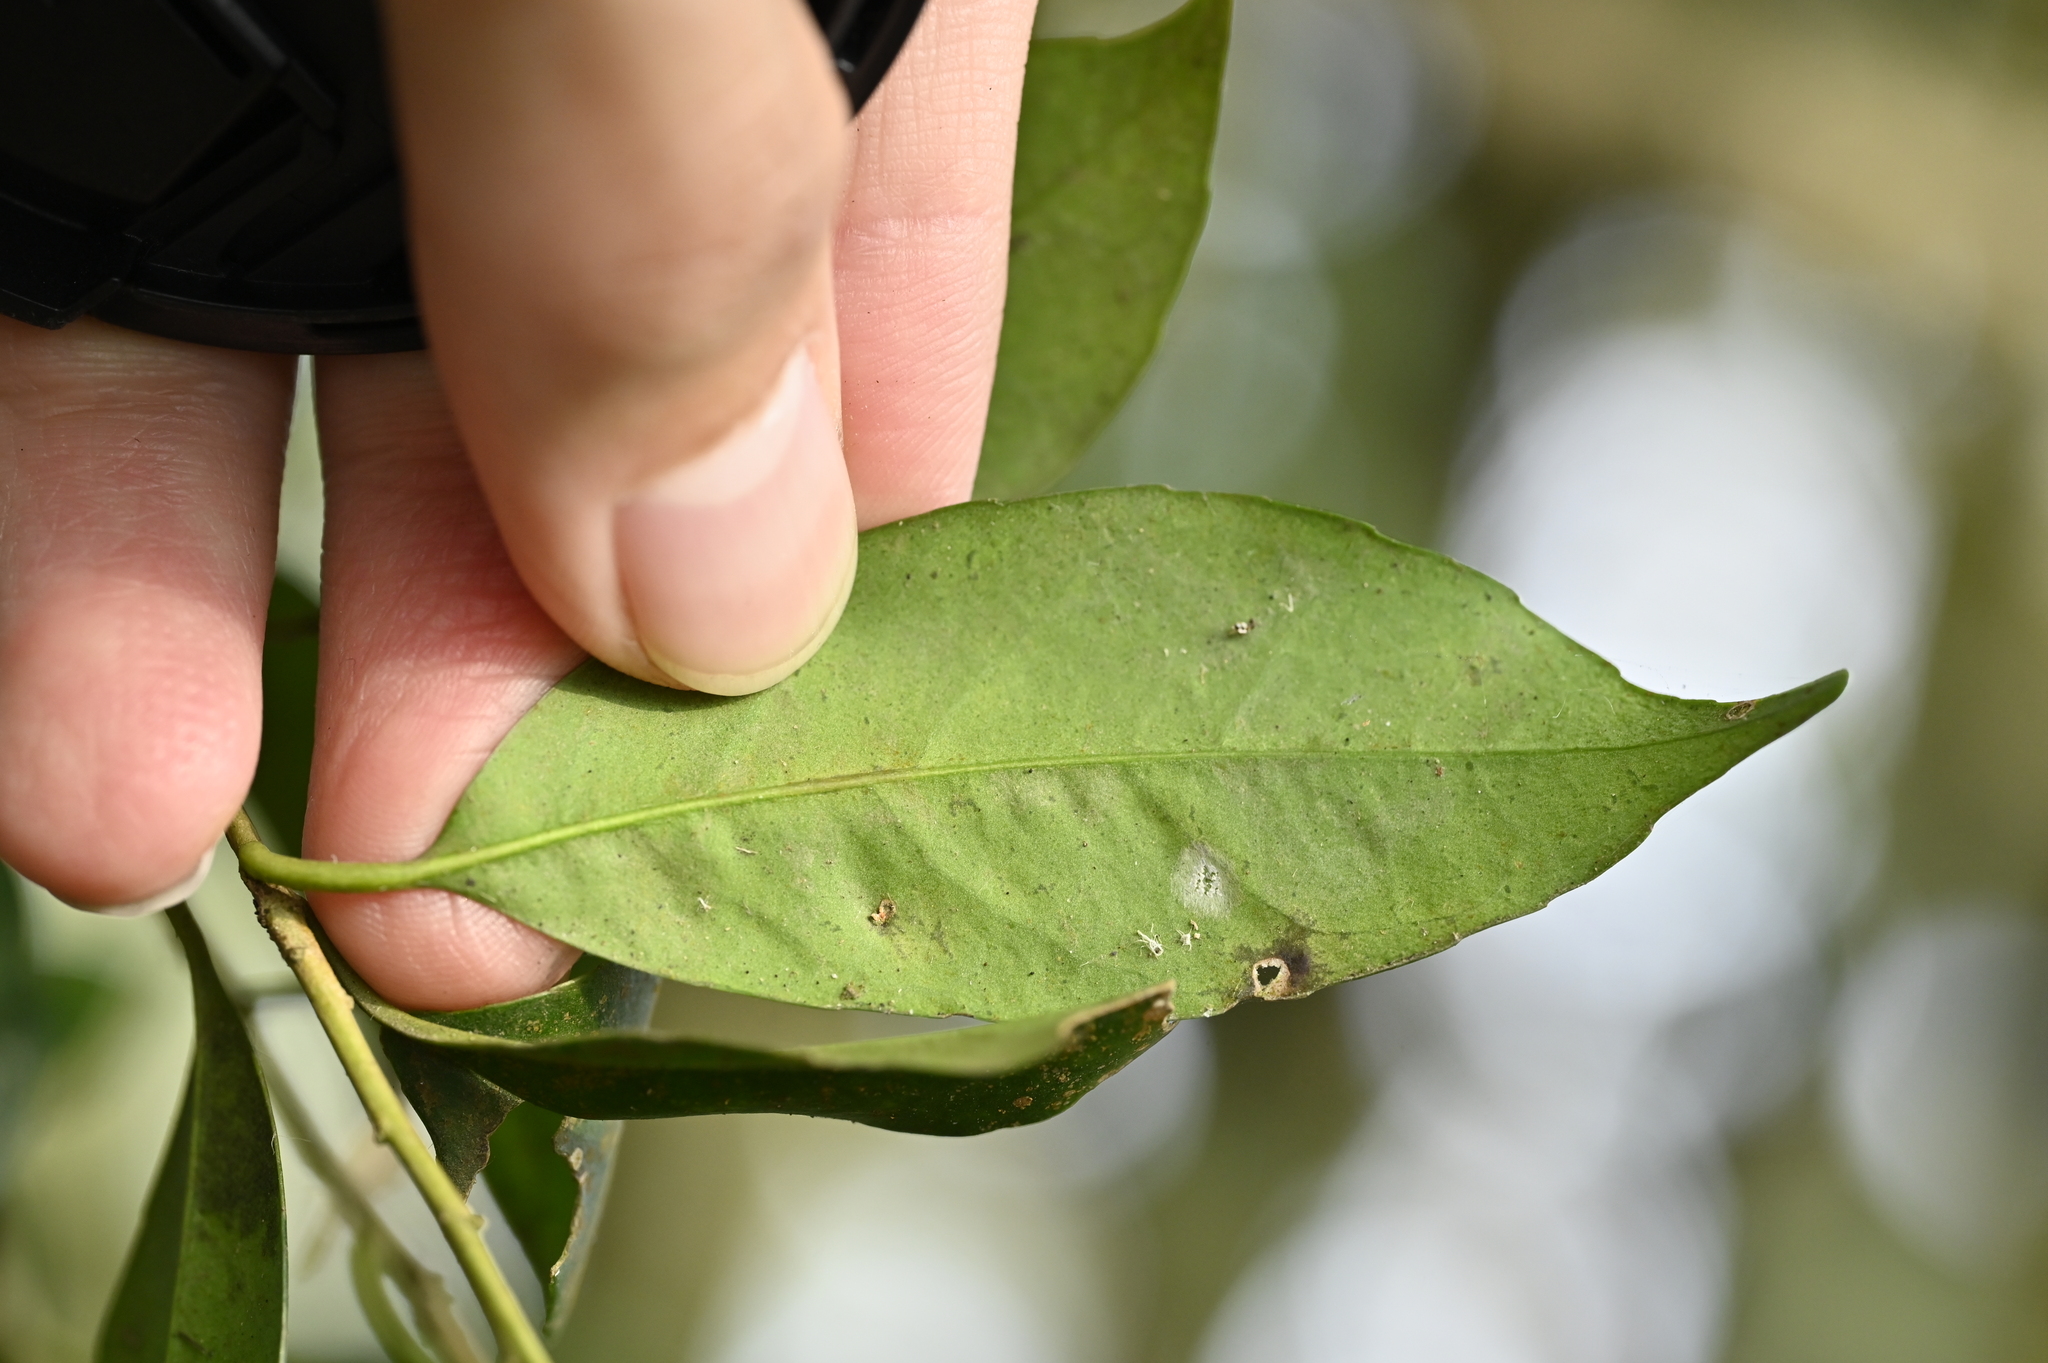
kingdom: Plantae
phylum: Tracheophyta
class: Magnoliopsida
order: Aquifoliales
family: Aquifoliaceae
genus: Ilex
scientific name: Ilex ficoidea
